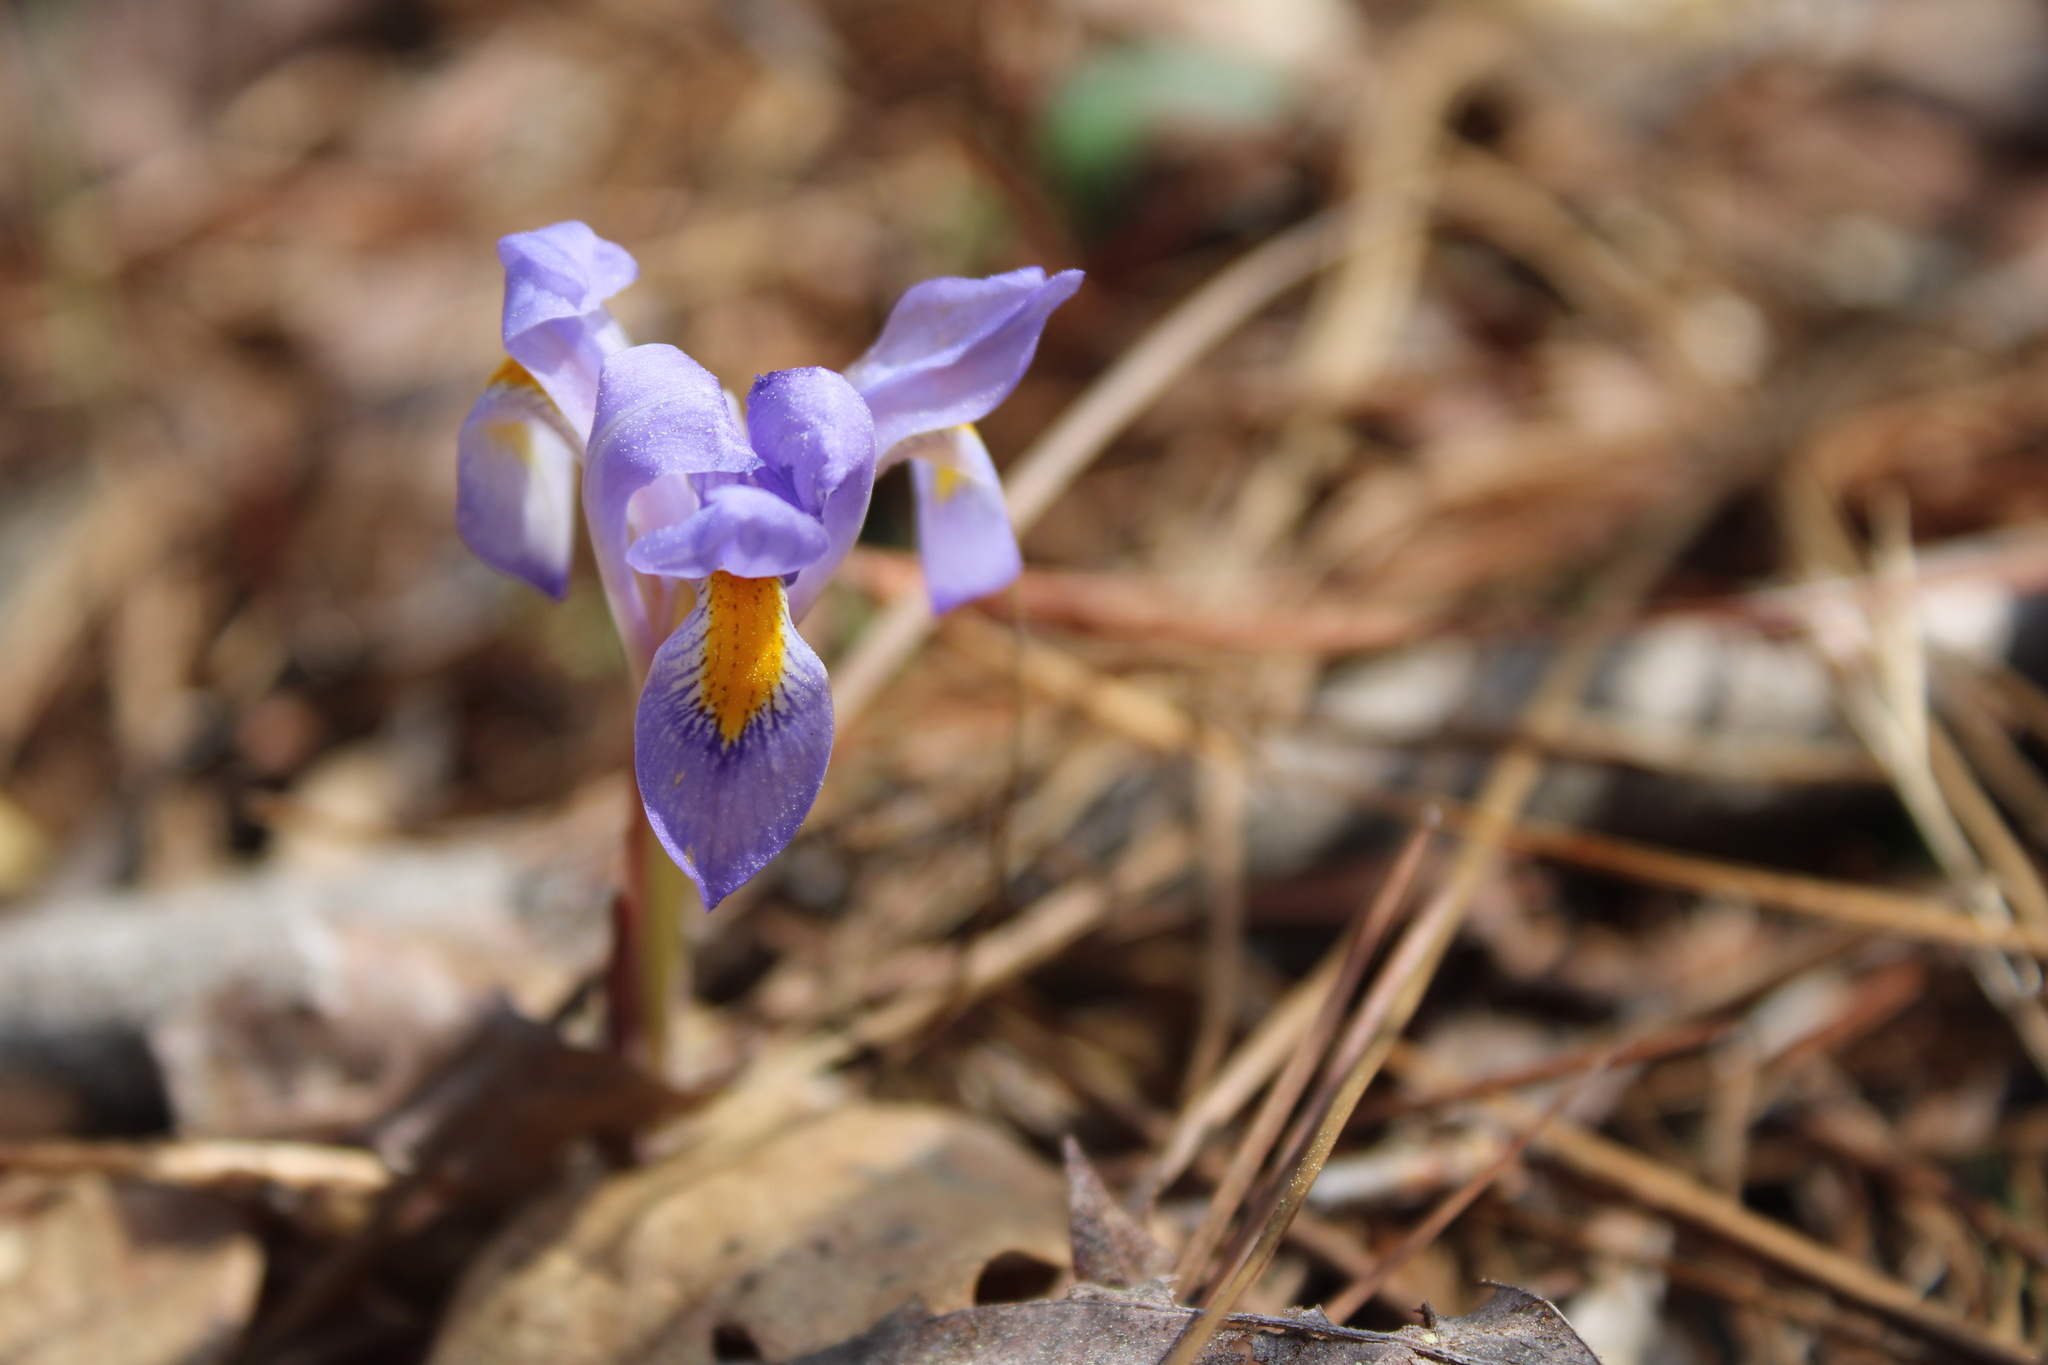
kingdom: Plantae
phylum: Tracheophyta
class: Liliopsida
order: Asparagales
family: Iridaceae
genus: Iris
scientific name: Iris verna
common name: Dwarf iris
